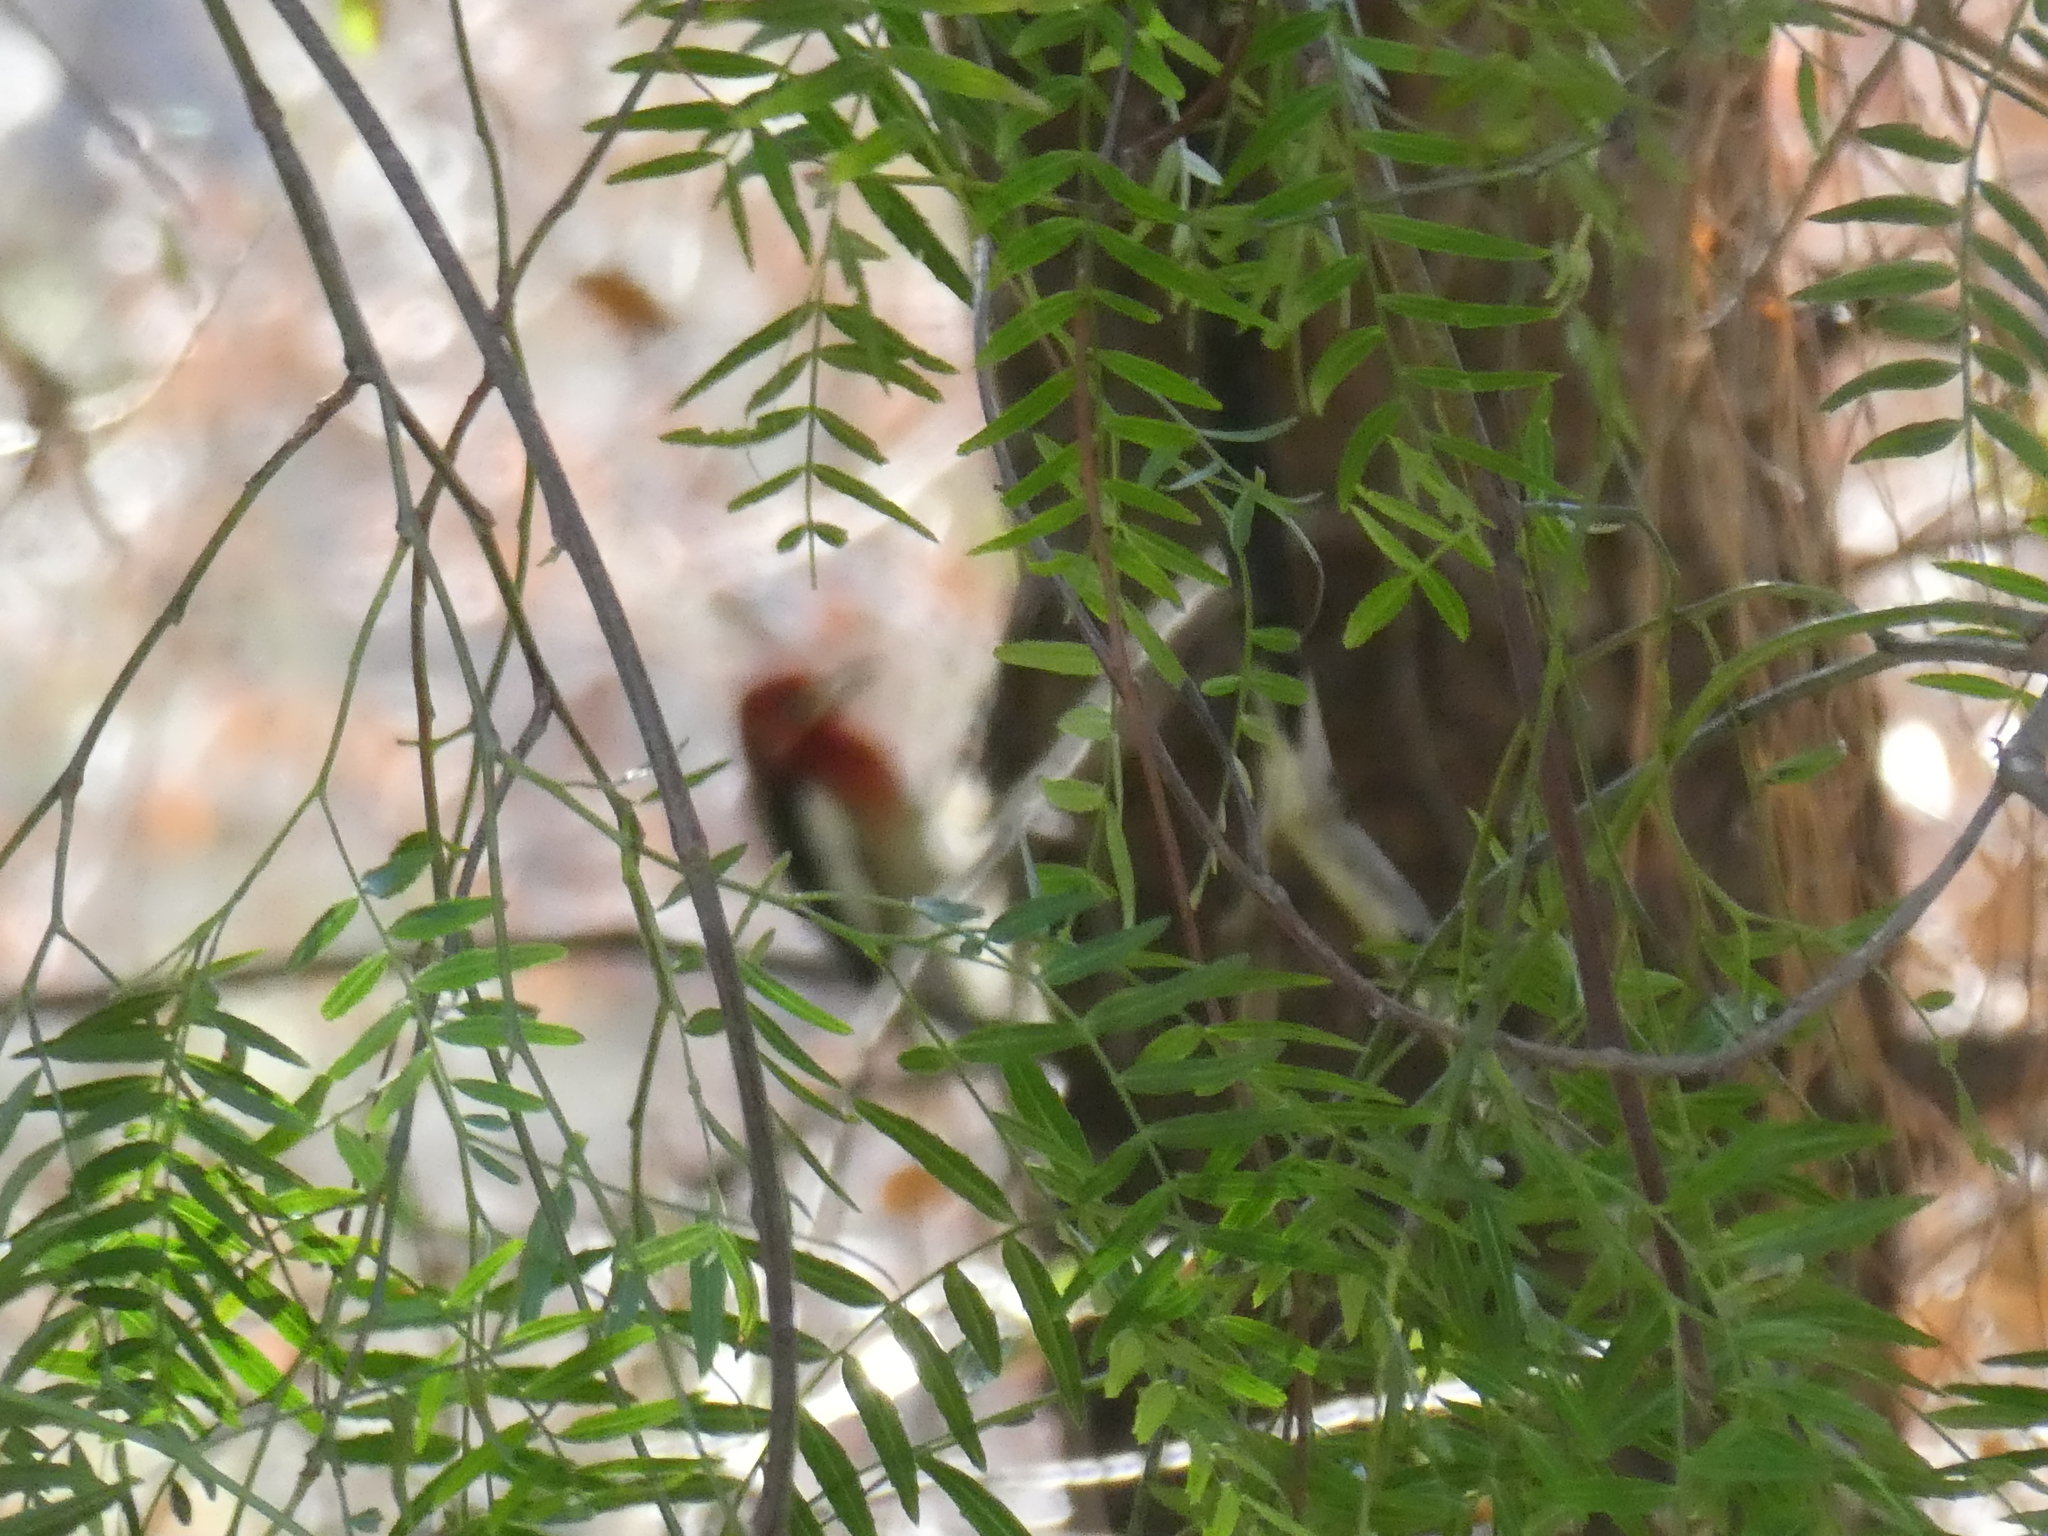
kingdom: Animalia
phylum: Chordata
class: Aves
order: Piciformes
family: Picidae
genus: Sphyrapicus
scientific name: Sphyrapicus ruber
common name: Red-breasted sapsucker
